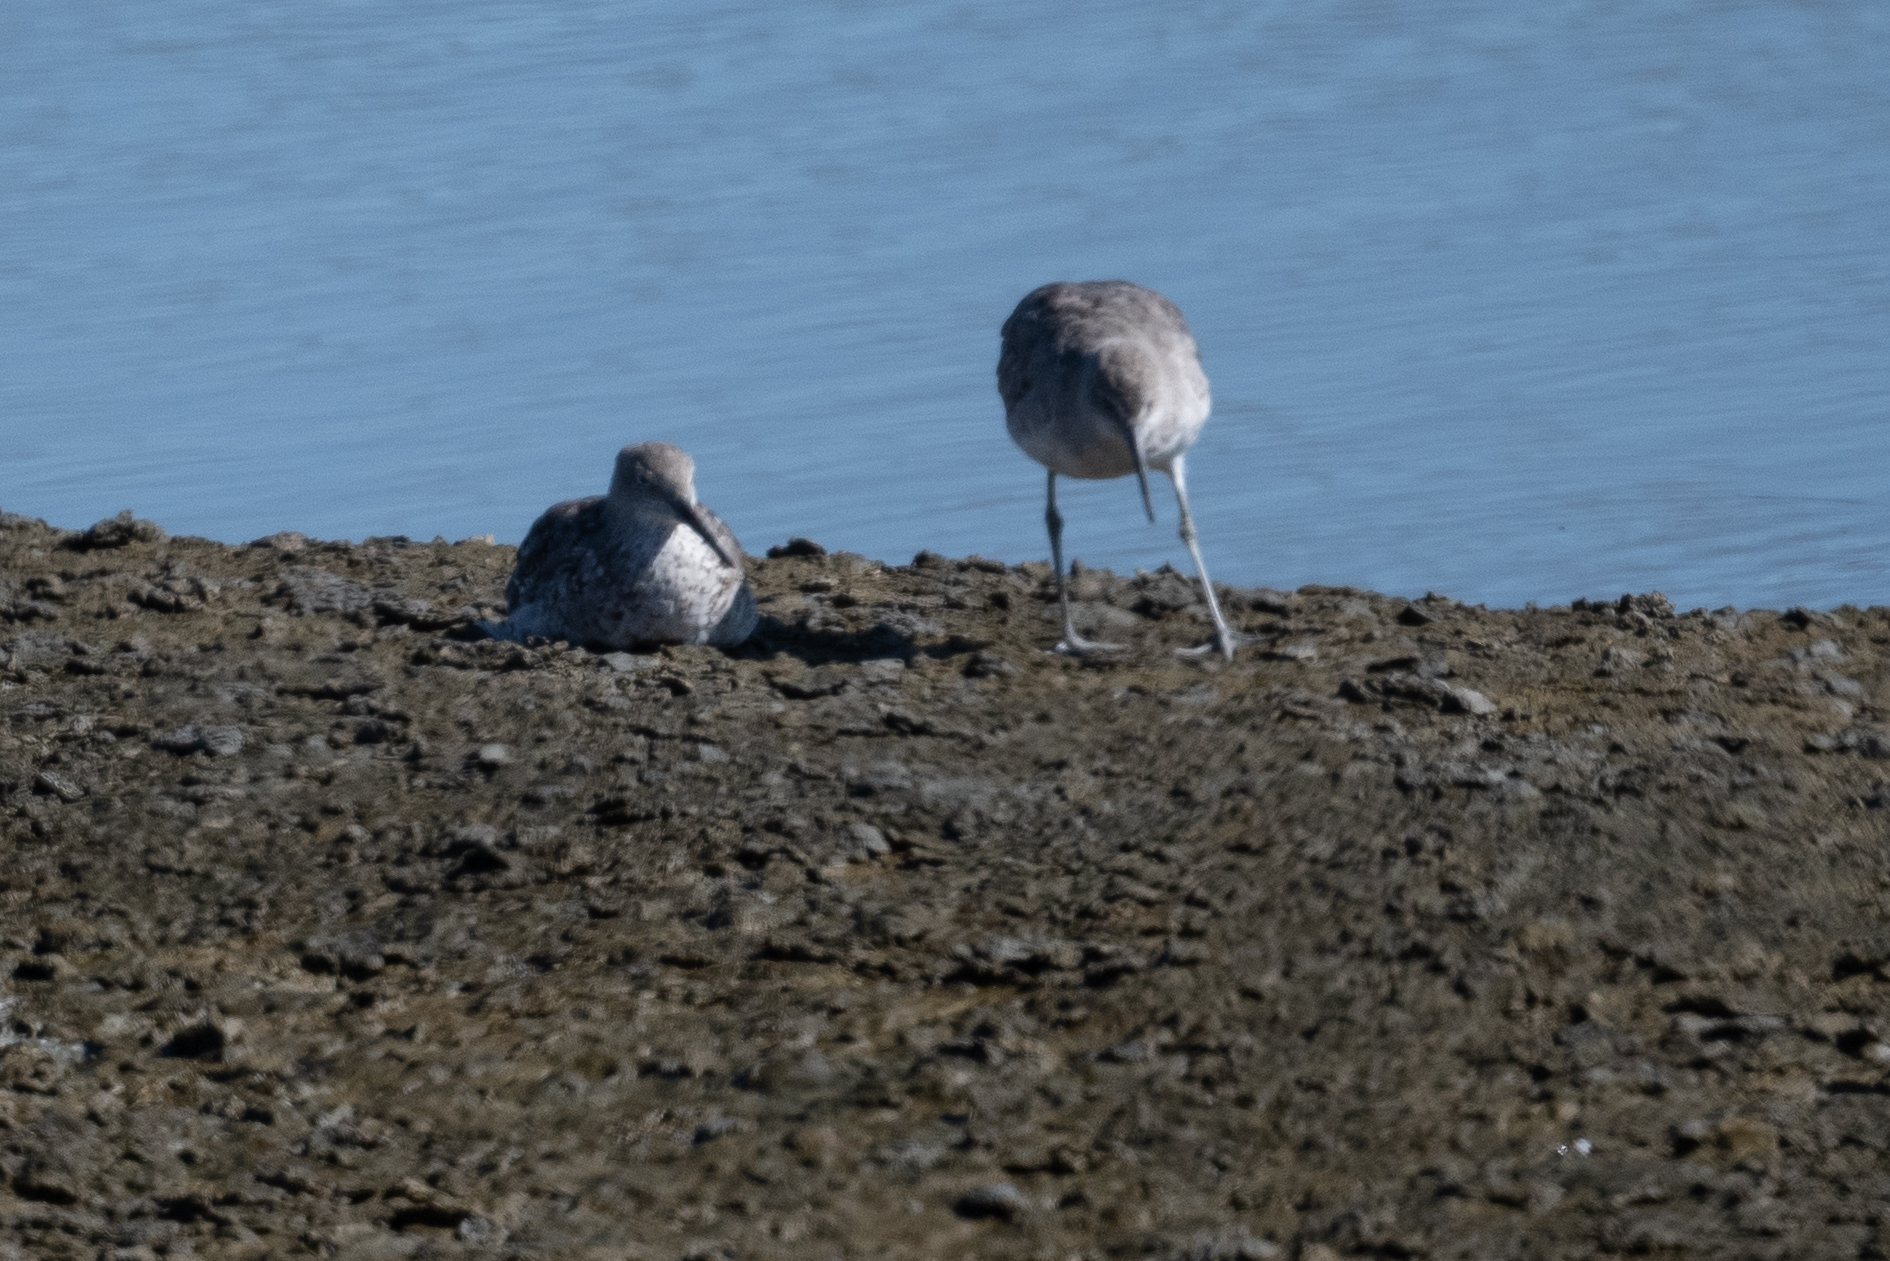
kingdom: Animalia
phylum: Chordata
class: Aves
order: Charadriiformes
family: Scolopacidae
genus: Tringa
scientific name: Tringa semipalmata
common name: Willet
